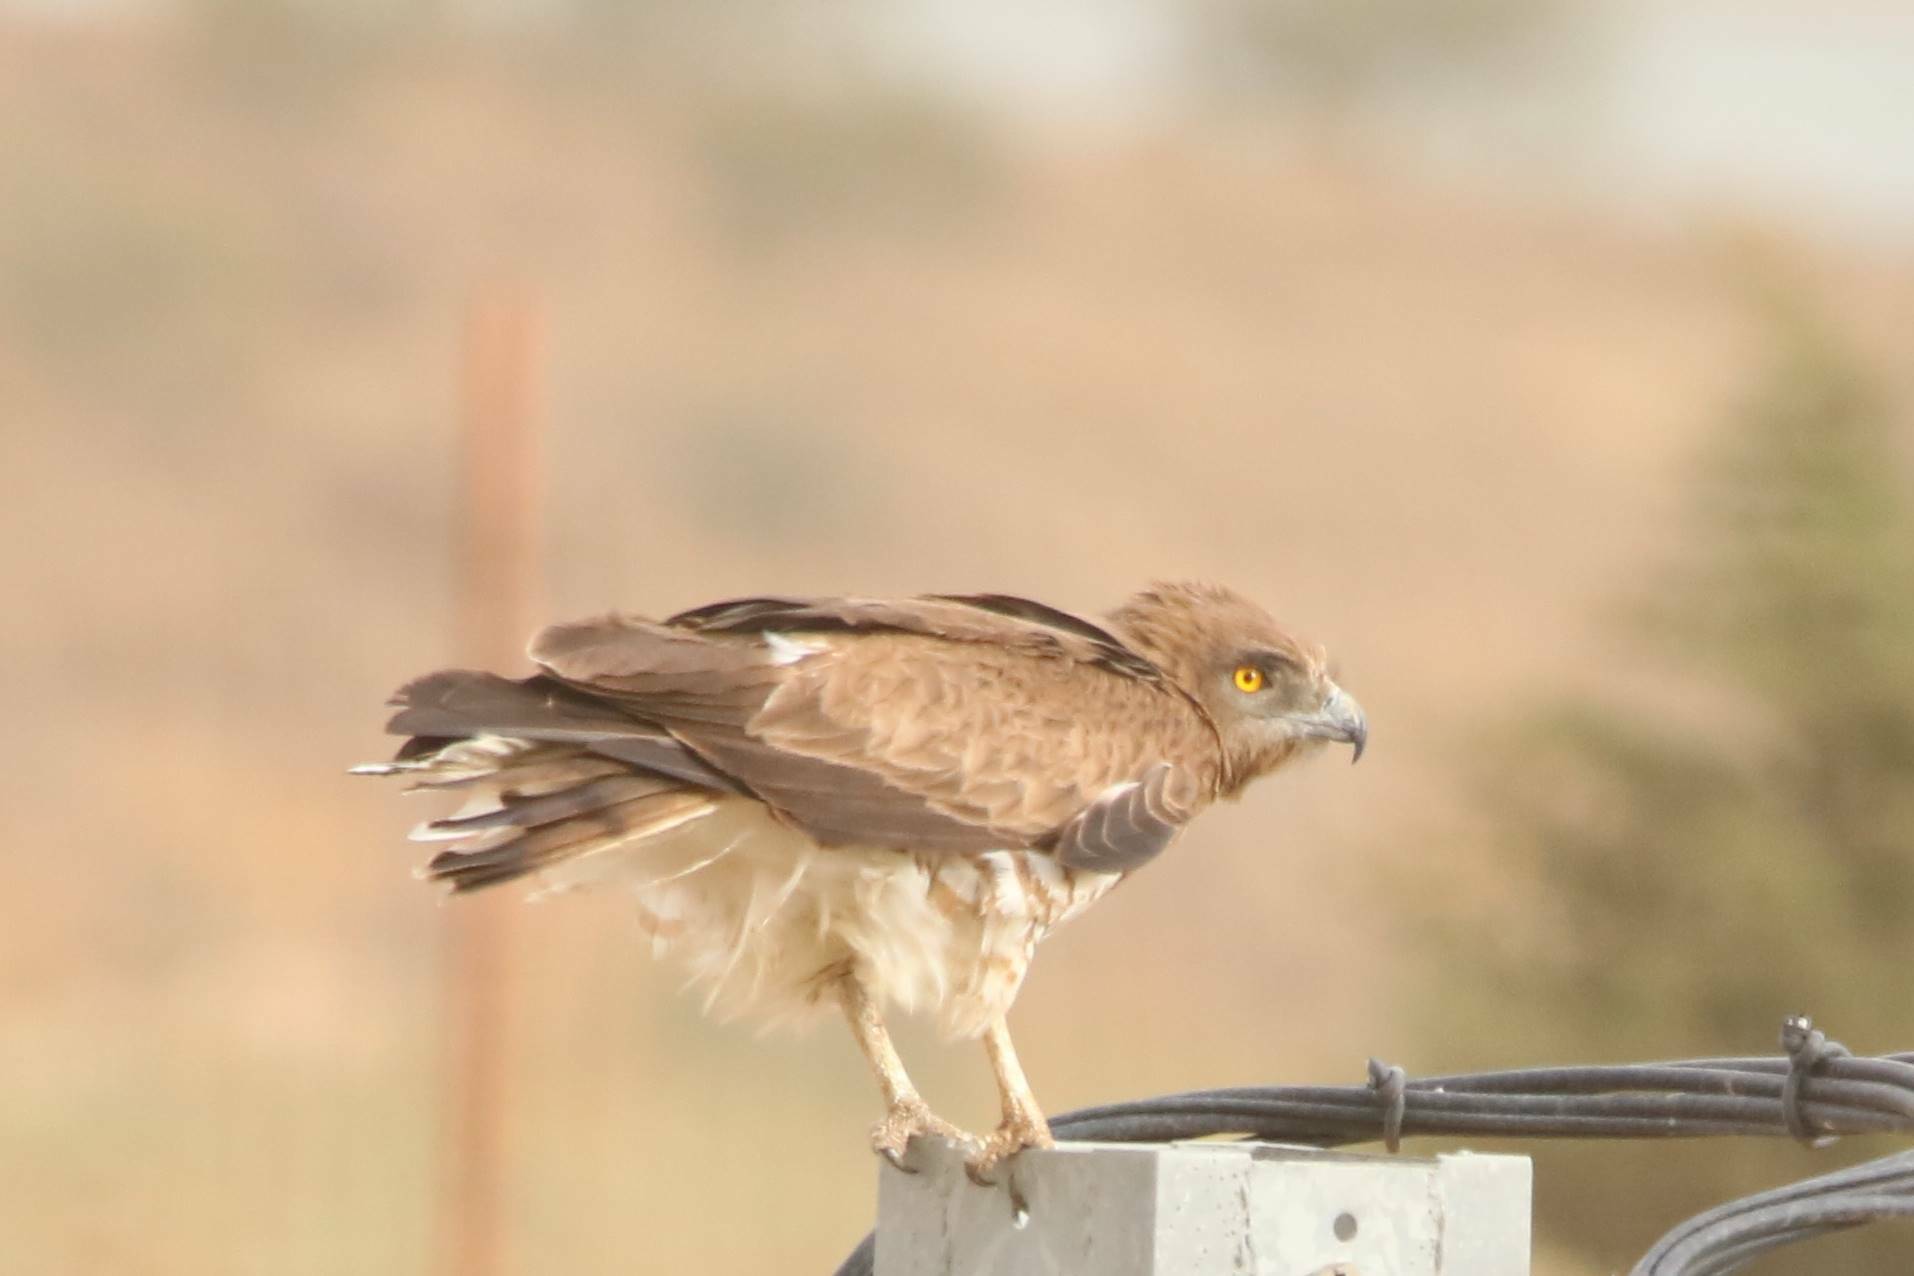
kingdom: Animalia
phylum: Chordata
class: Aves
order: Accipitriformes
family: Accipitridae
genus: Circaetus
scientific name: Circaetus gallicus
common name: Short-toed snake eagle
